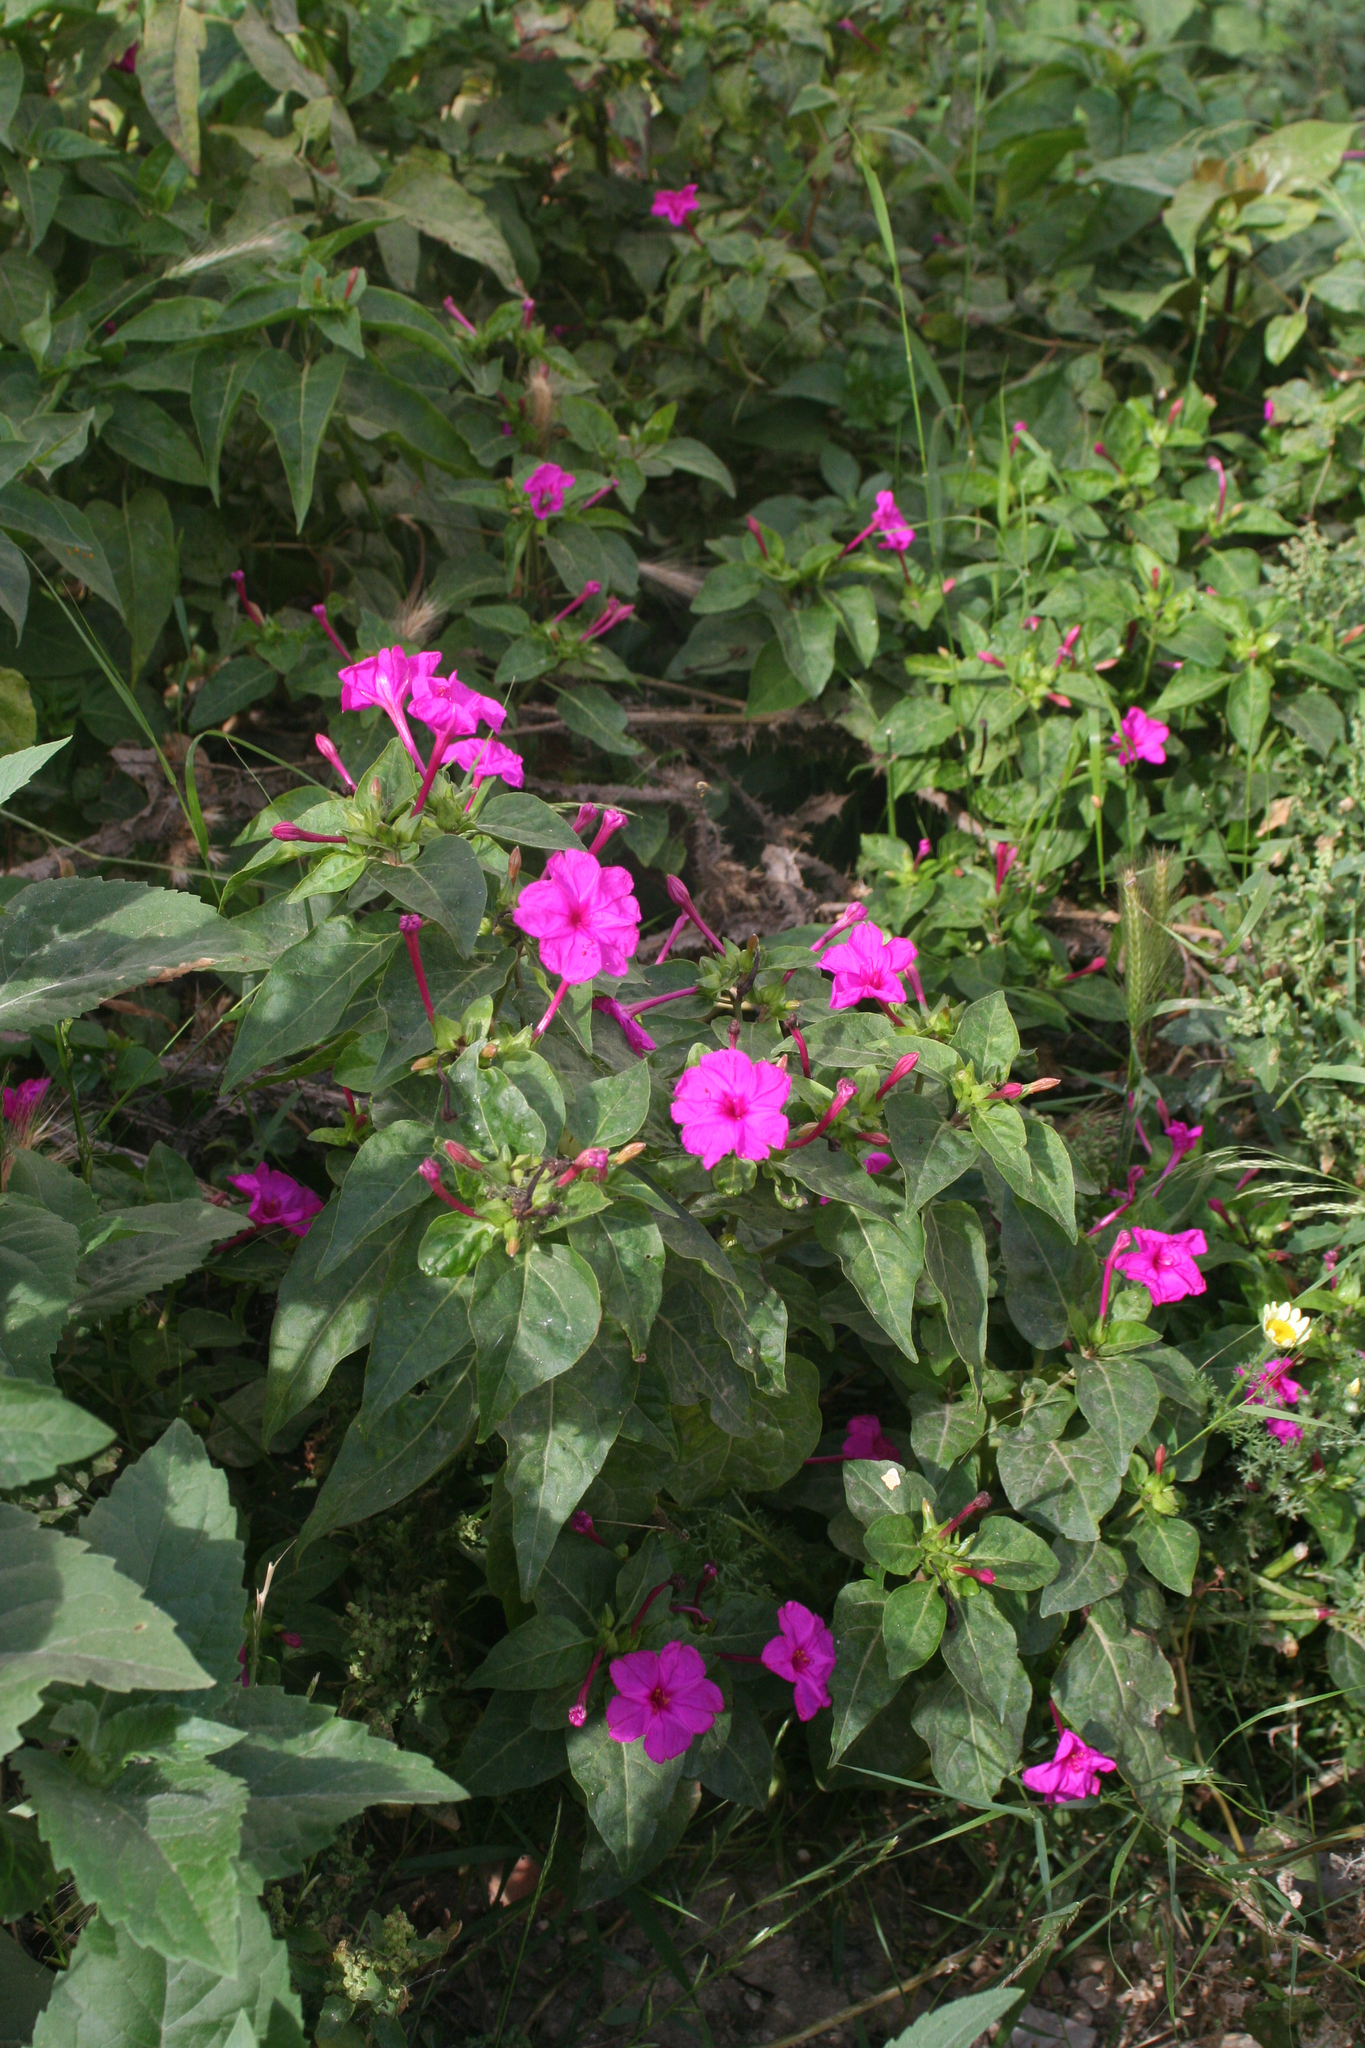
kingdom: Plantae
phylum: Tracheophyta
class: Magnoliopsida
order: Caryophyllales
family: Nyctaginaceae
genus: Mirabilis
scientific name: Mirabilis jalapa
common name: Marvel-of-peru
